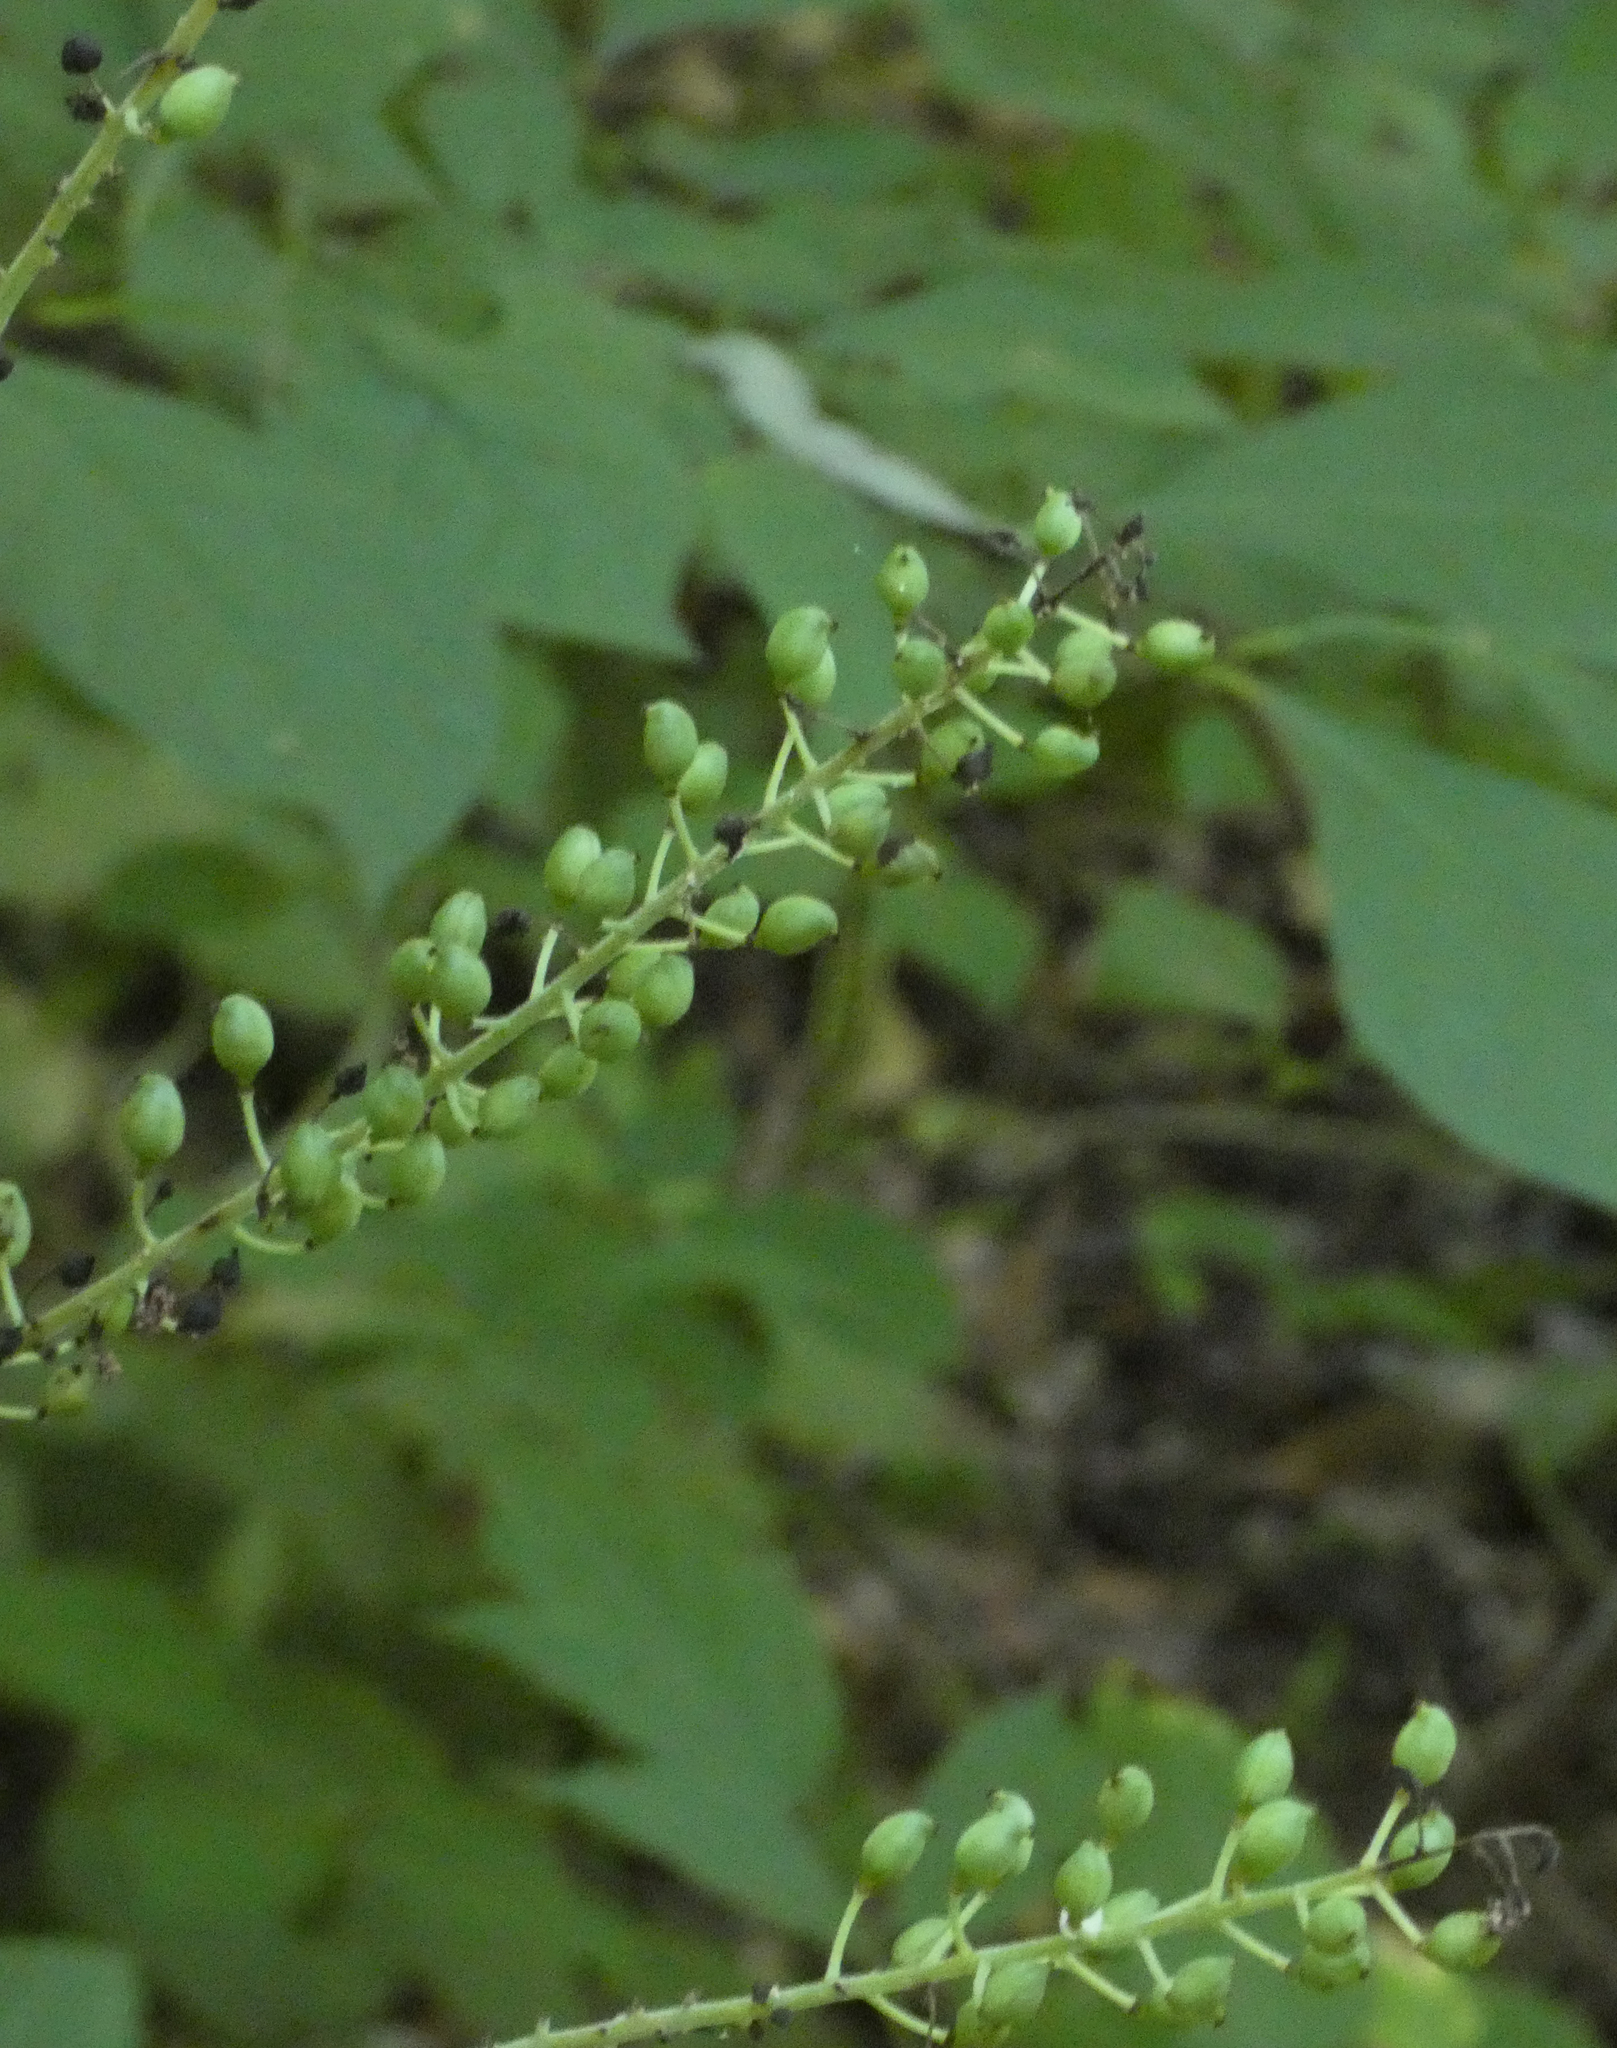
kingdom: Plantae
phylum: Tracheophyta
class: Magnoliopsida
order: Ranunculales
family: Ranunculaceae
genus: Actaea
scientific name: Actaea racemosa
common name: Black cohosh
